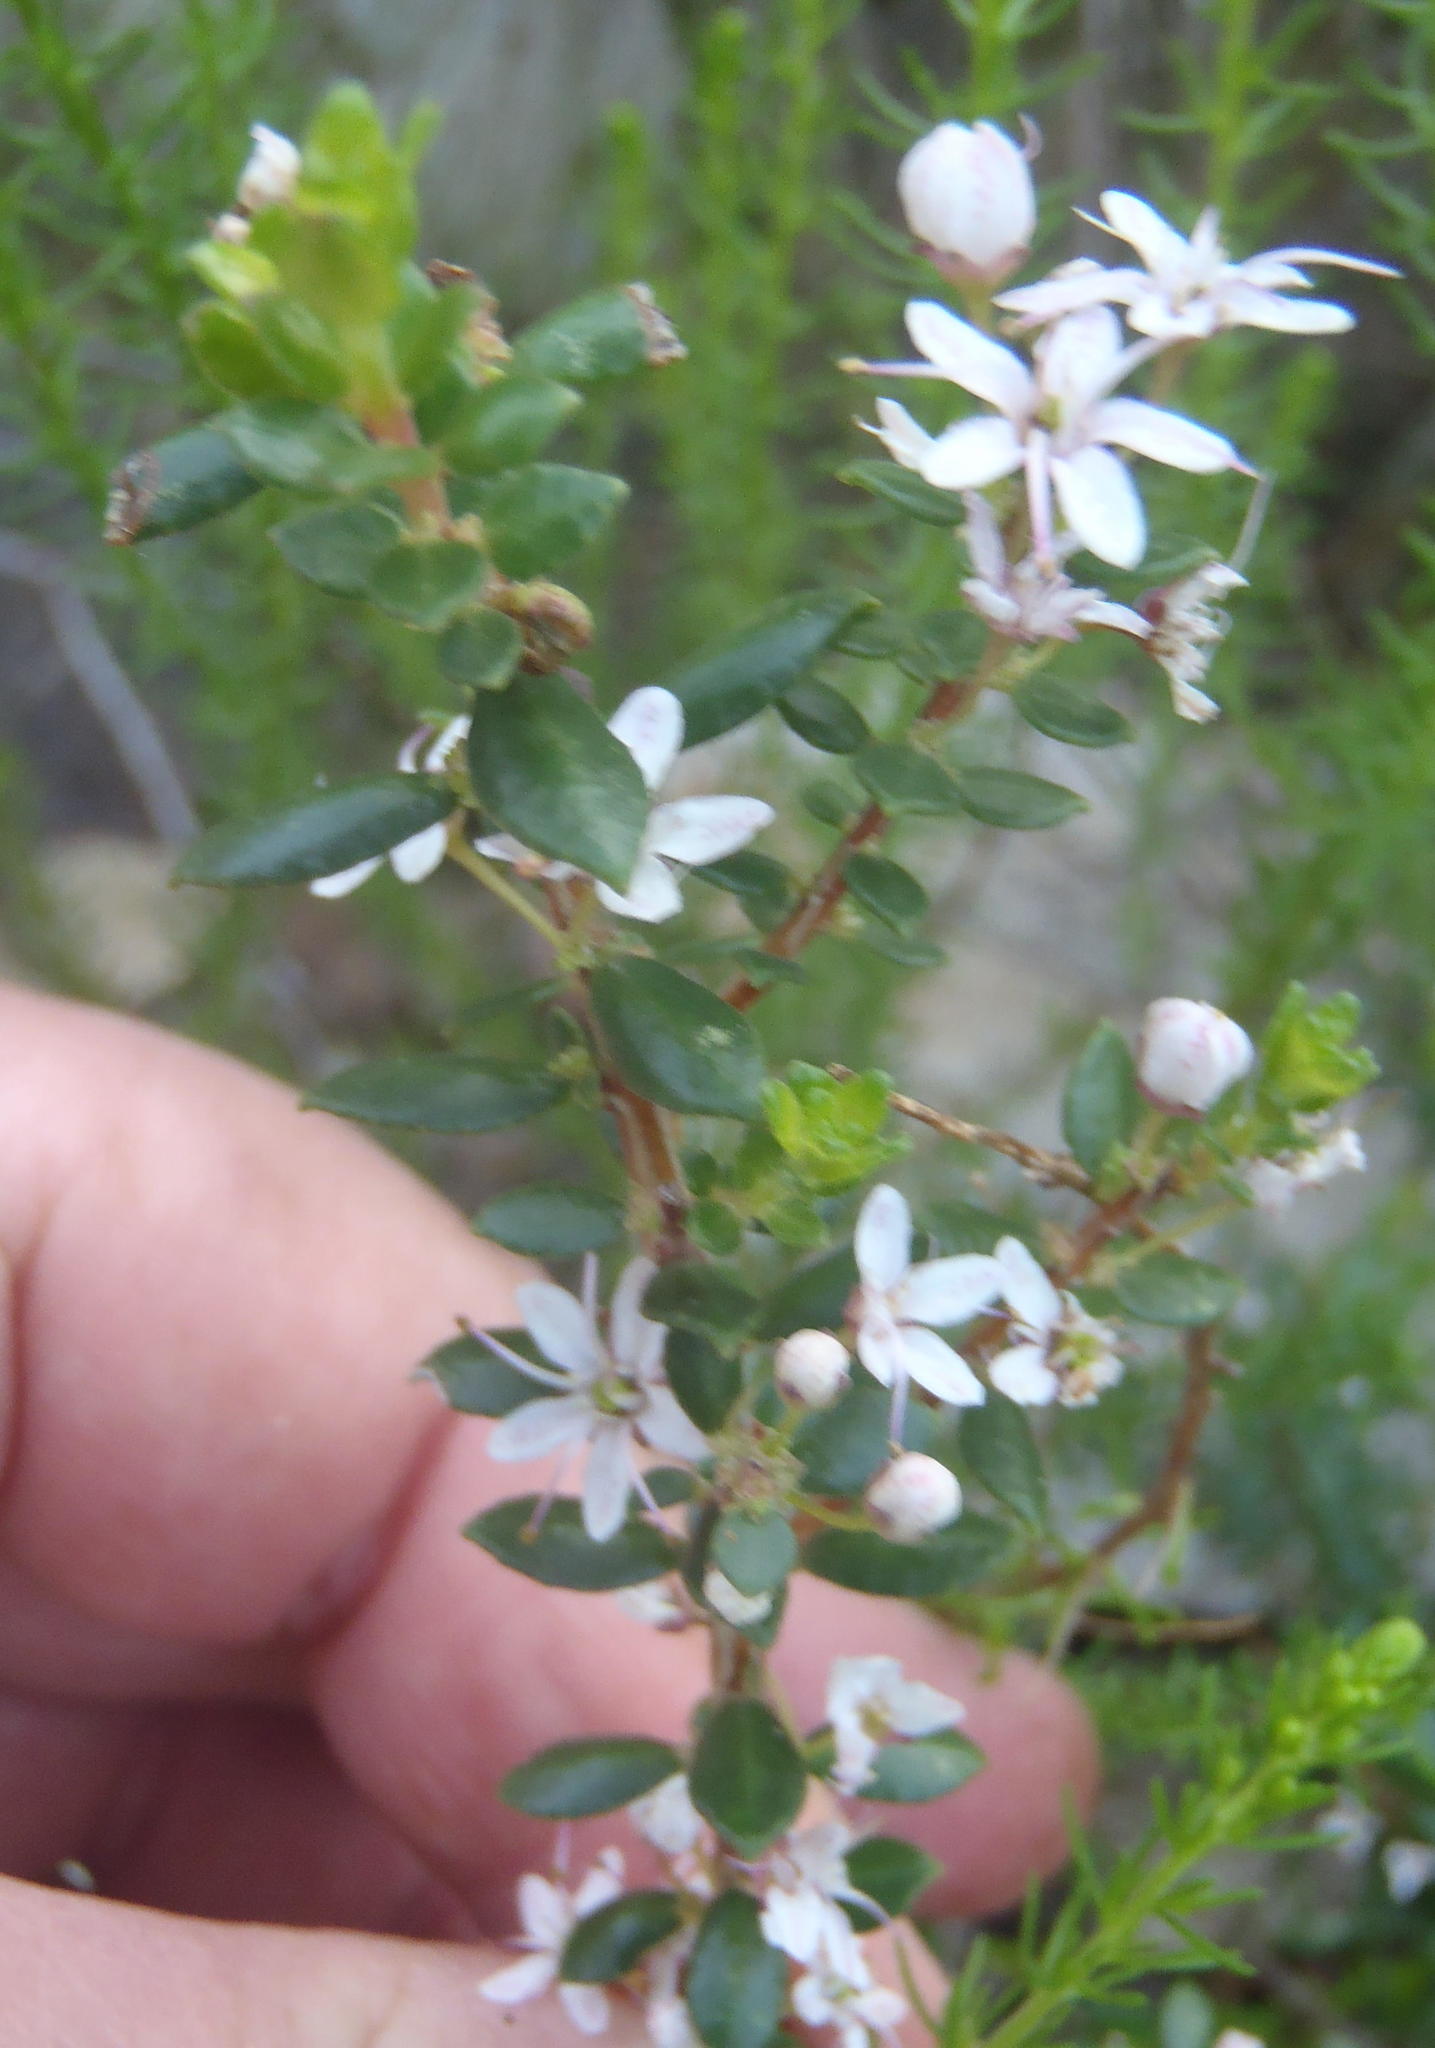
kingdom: Plantae
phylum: Tracheophyta
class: Magnoliopsida
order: Sapindales
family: Rutaceae
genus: Agathosma
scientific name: Agathosma ovata
